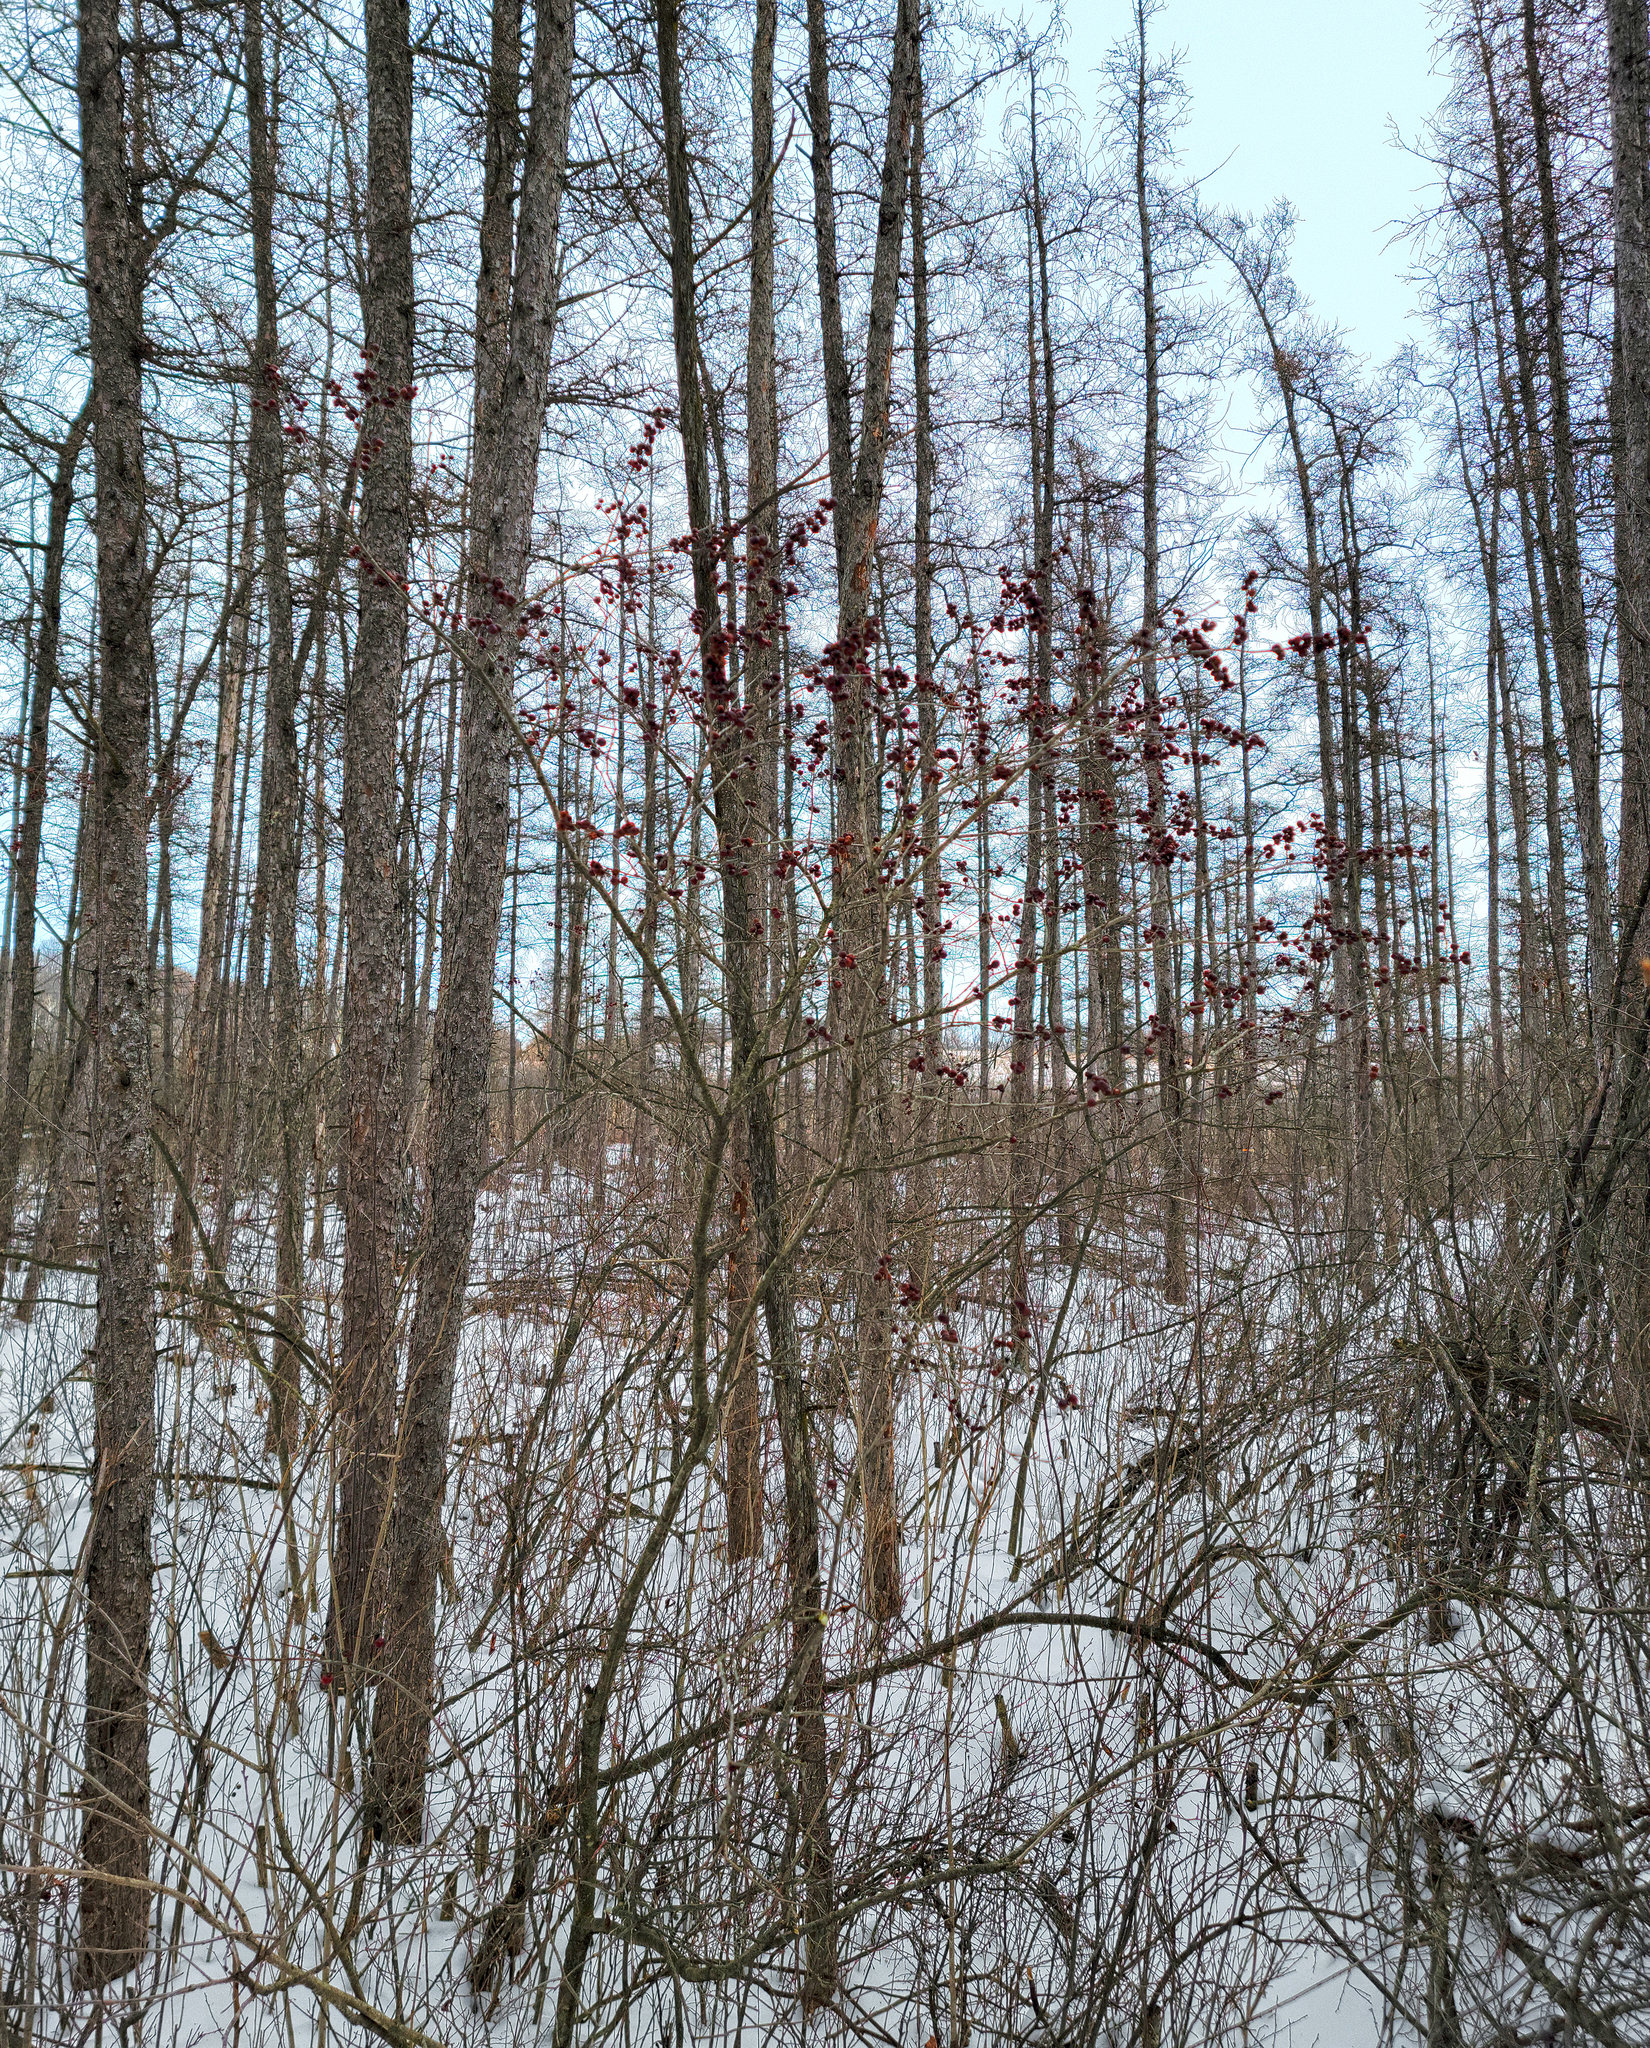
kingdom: Plantae
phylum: Tracheophyta
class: Magnoliopsida
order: Aquifoliales
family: Aquifoliaceae
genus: Ilex
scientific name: Ilex verticillata
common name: Virginia winterberry
